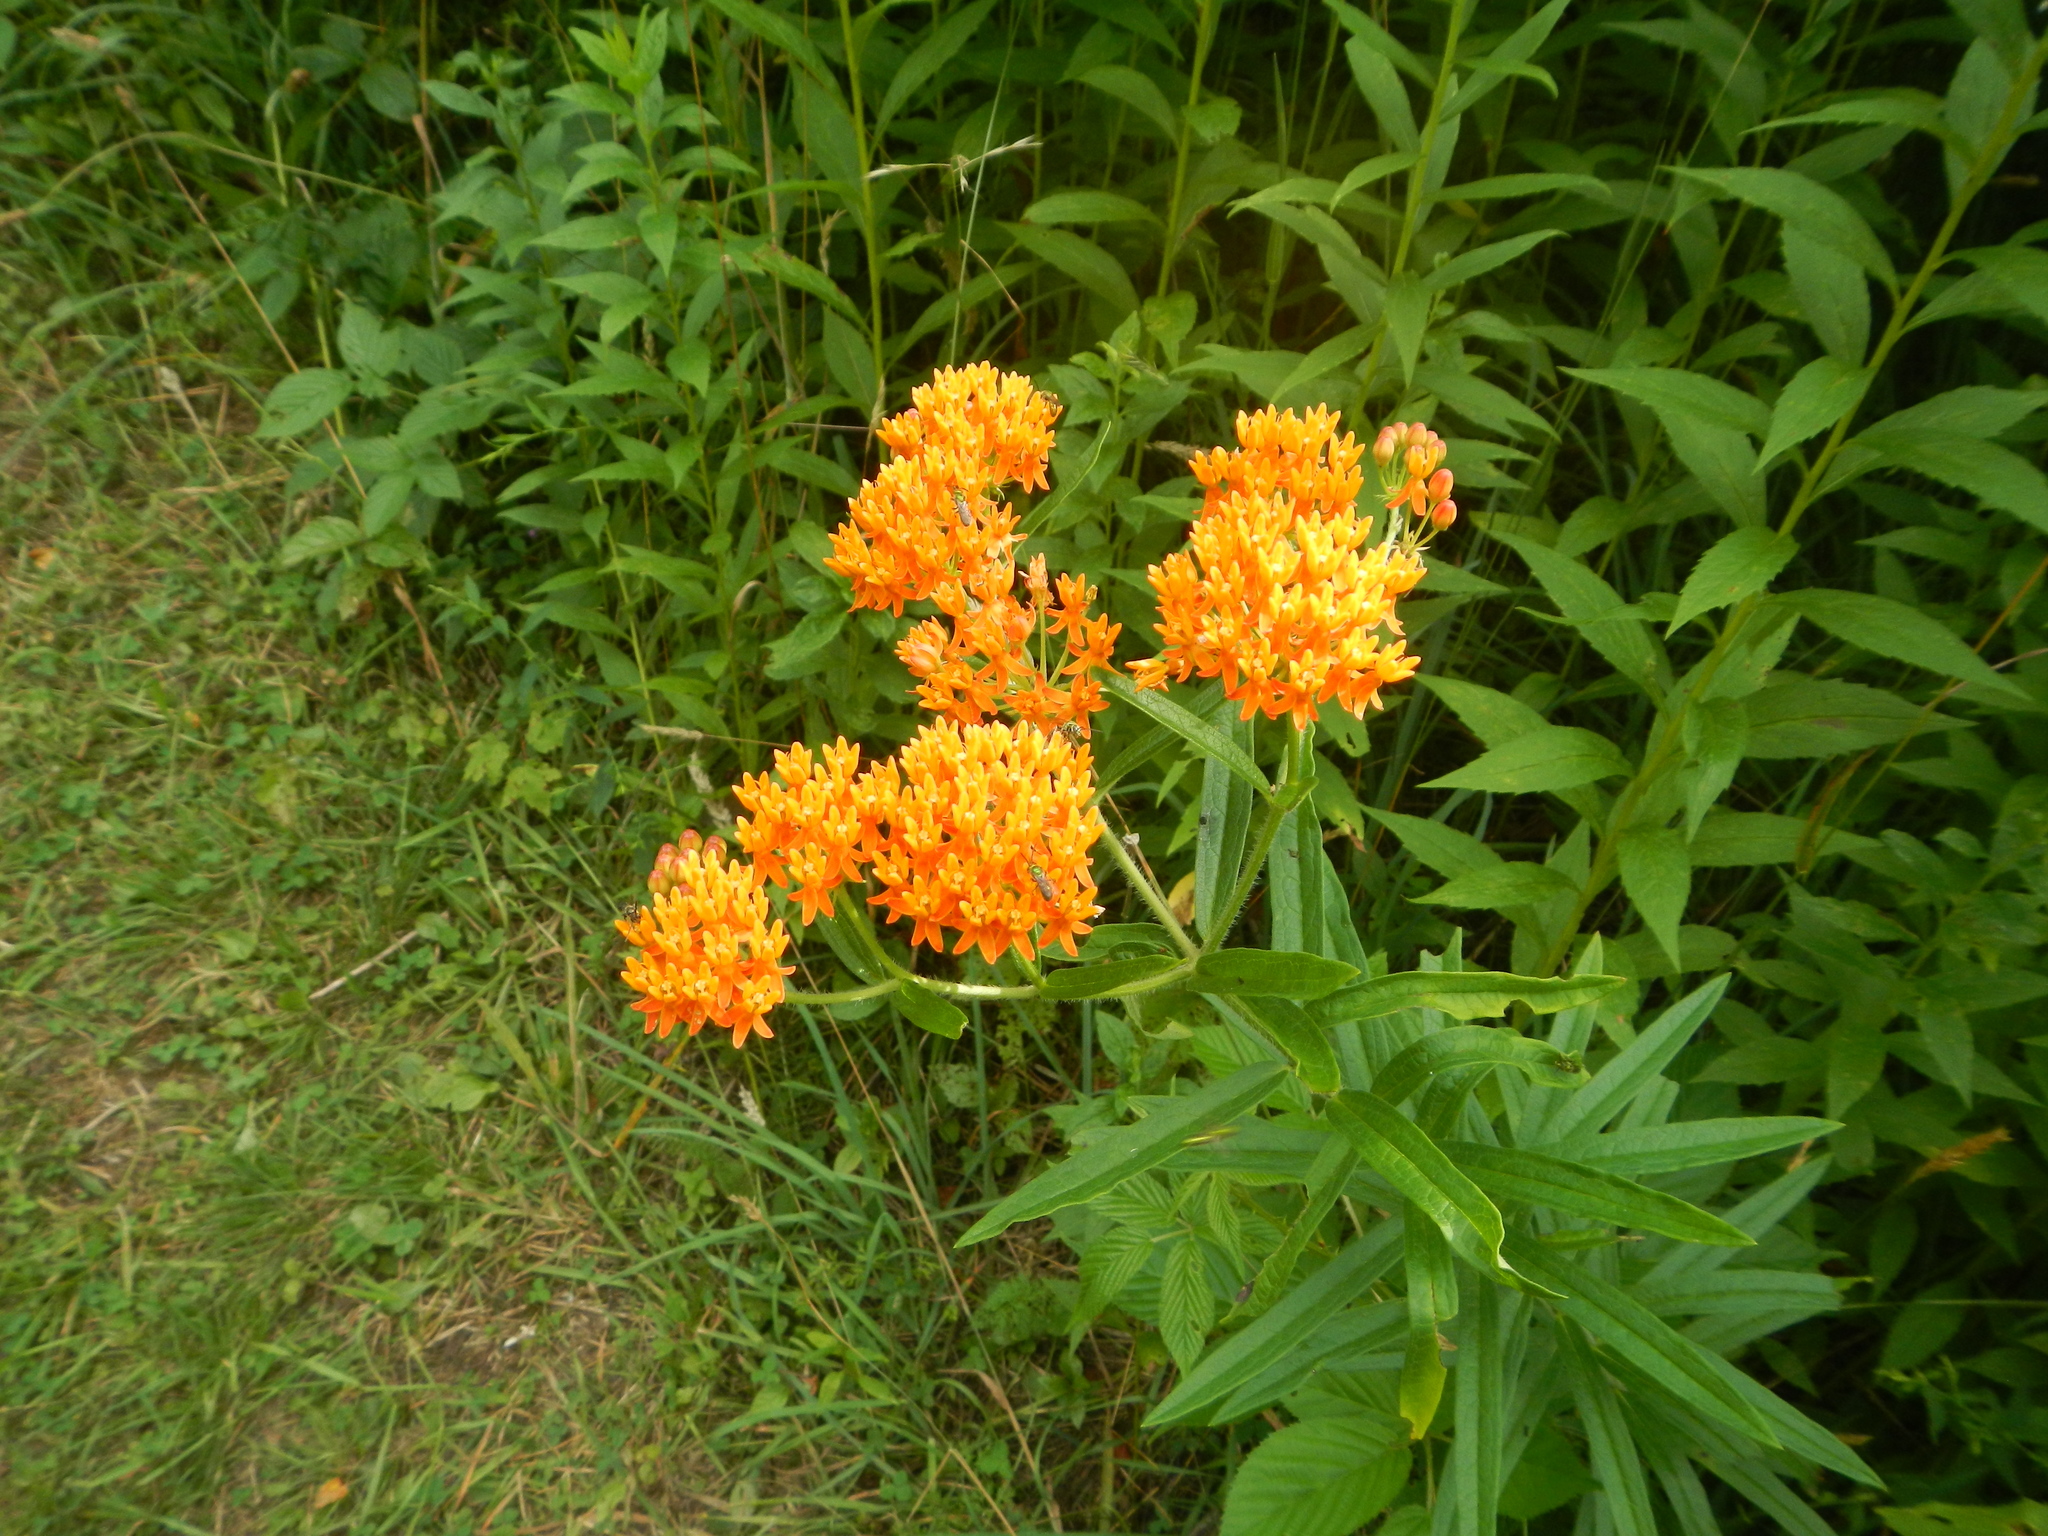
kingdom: Plantae
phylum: Tracheophyta
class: Magnoliopsida
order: Gentianales
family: Apocynaceae
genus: Asclepias
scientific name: Asclepias tuberosa
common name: Butterfly milkweed
